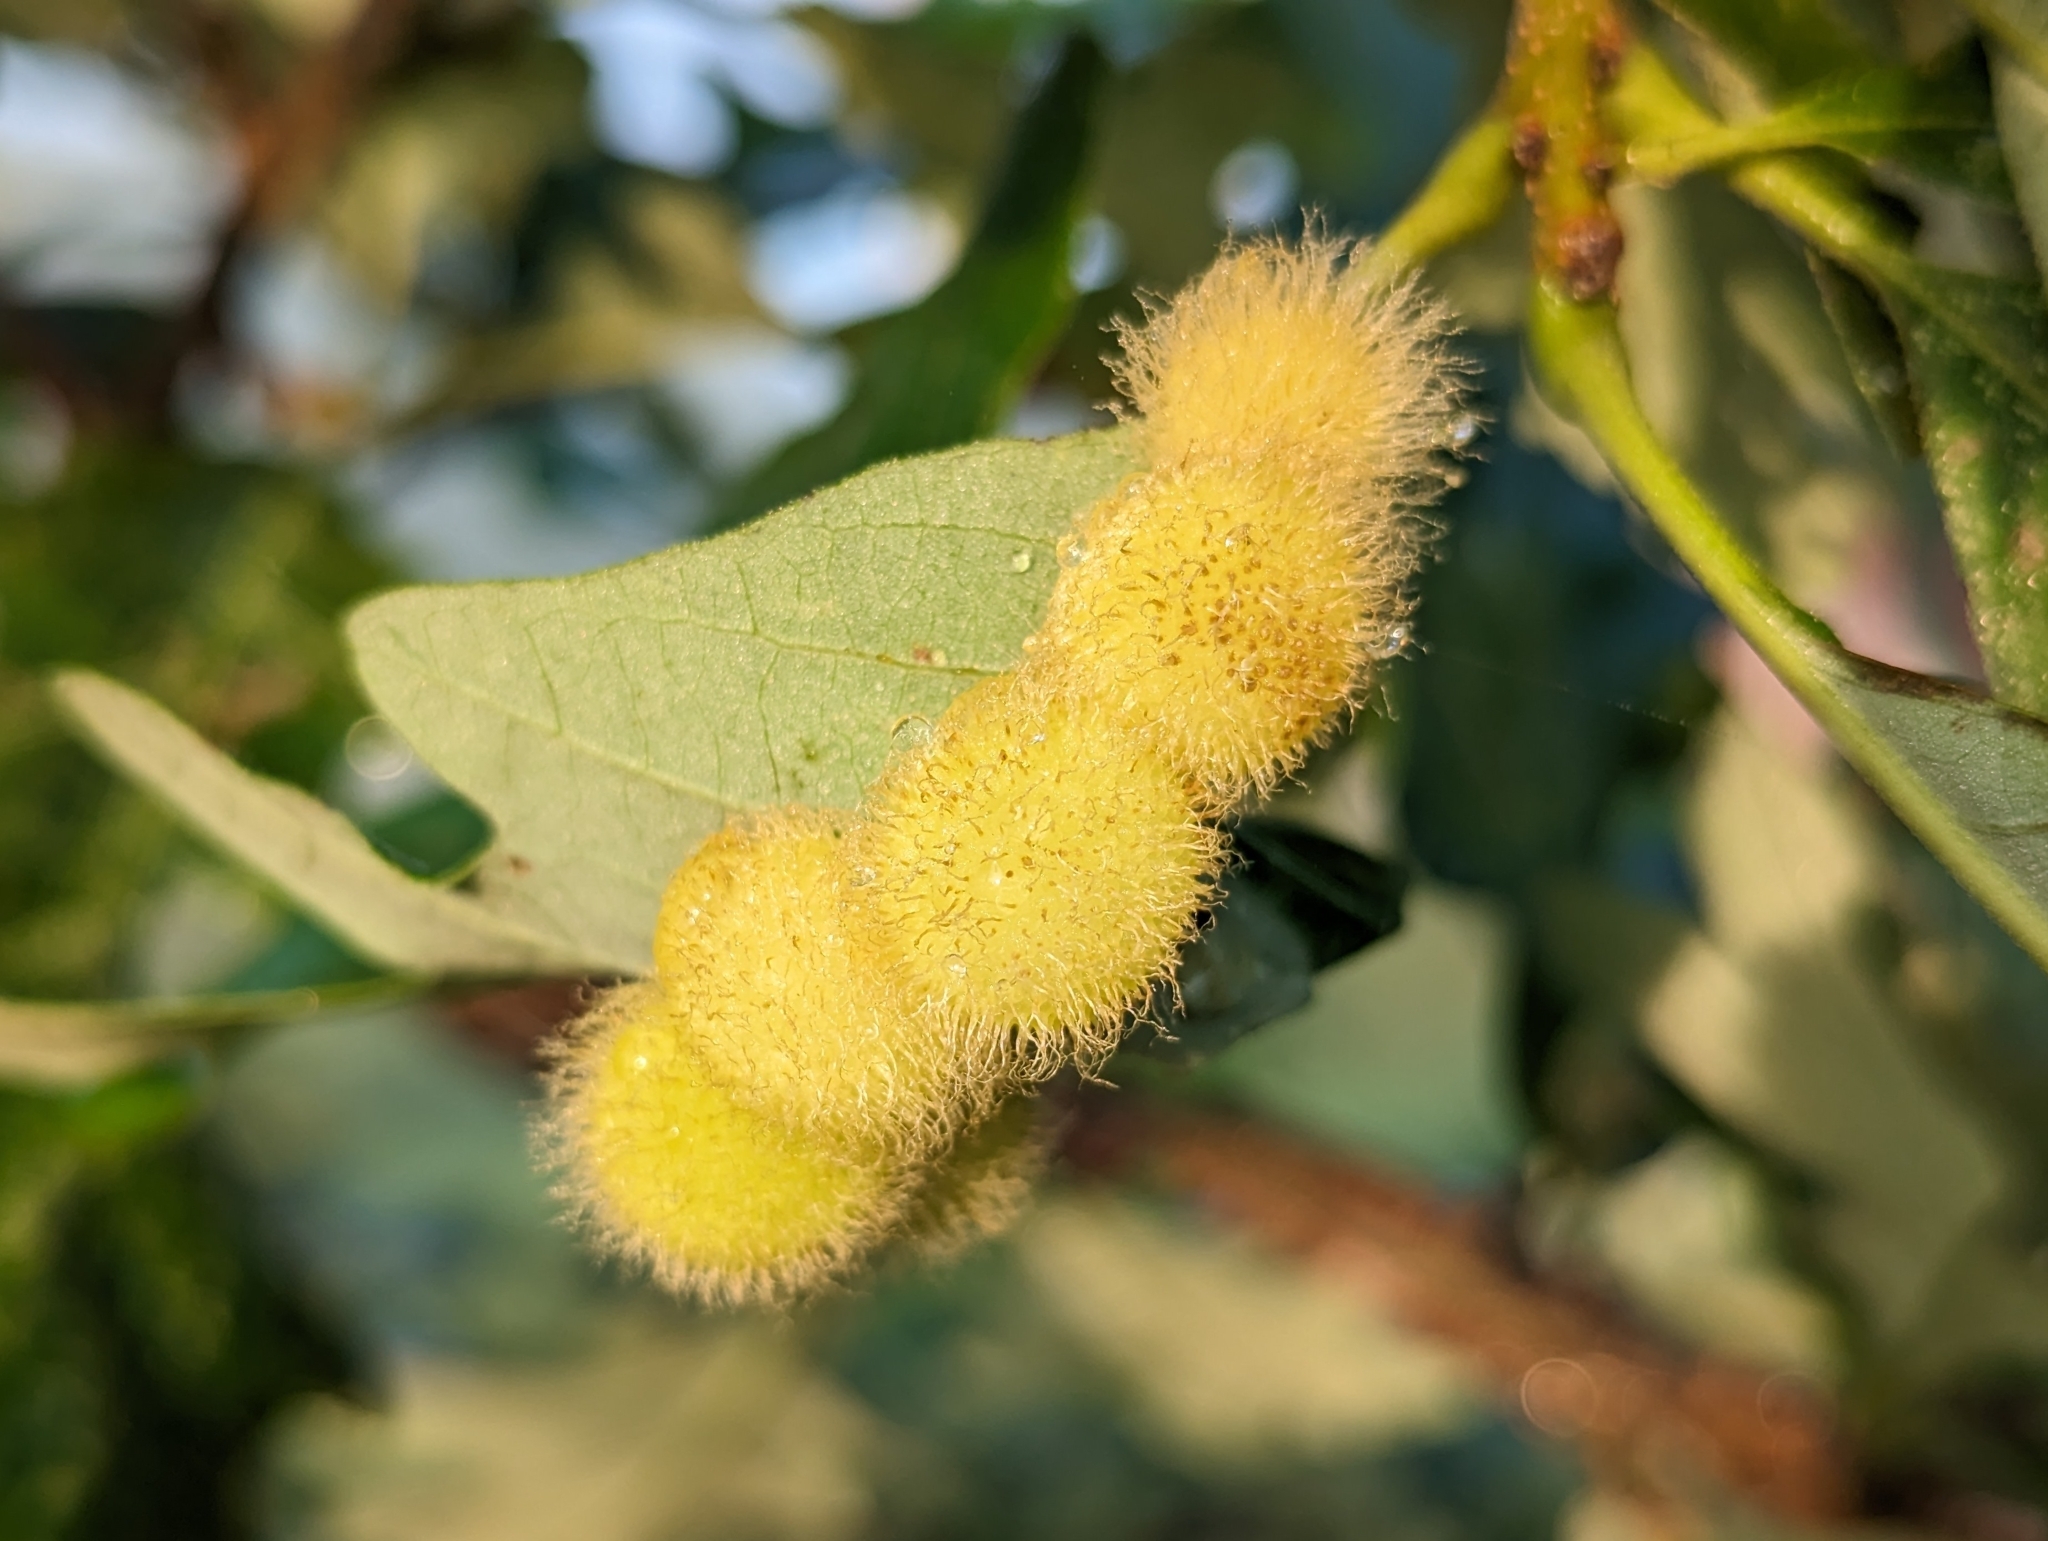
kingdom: Animalia
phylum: Arthropoda
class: Insecta
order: Hymenoptera
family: Cynipidae
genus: Acraspis
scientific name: Acraspis villosa
